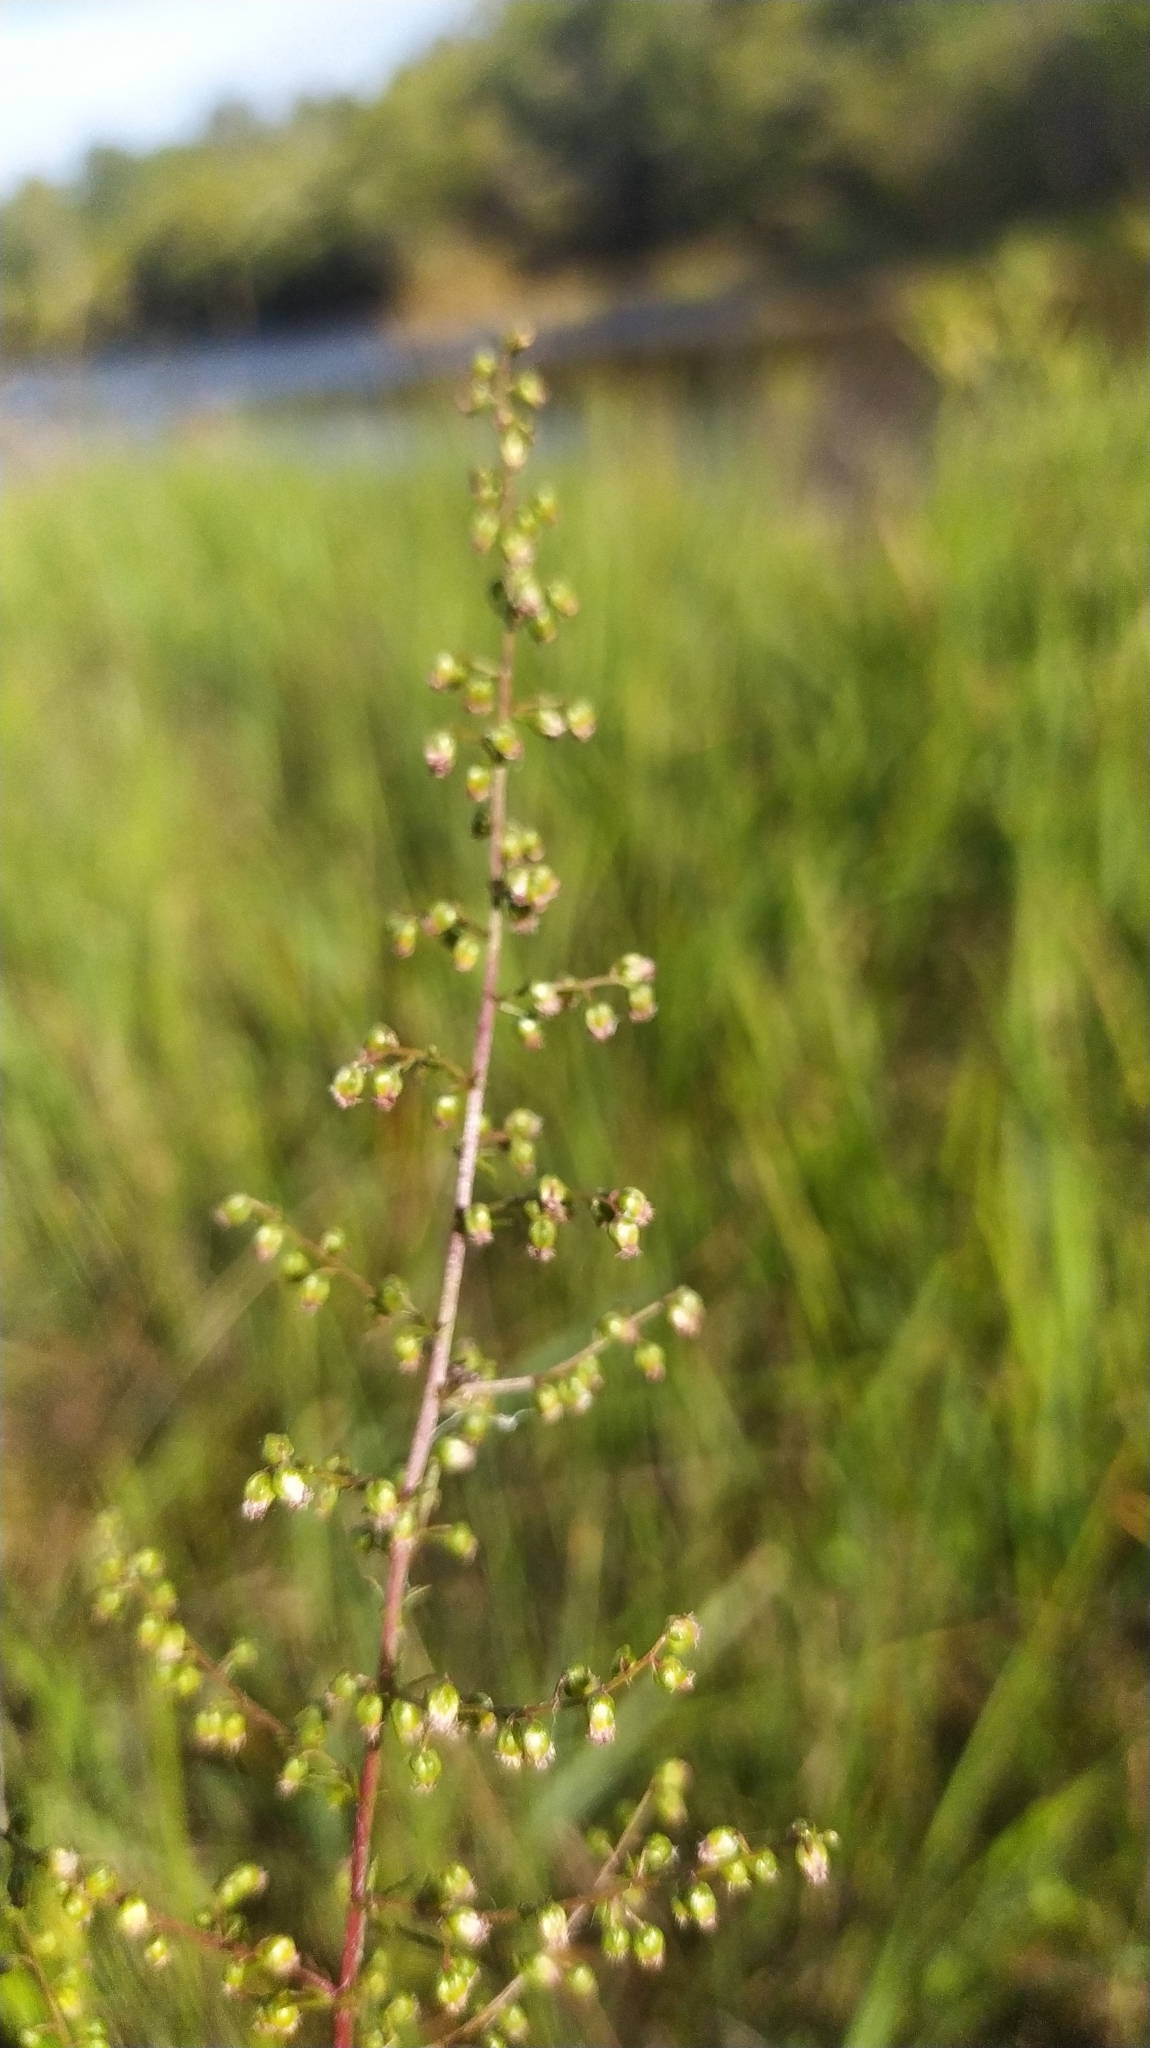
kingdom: Plantae
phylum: Tracheophyta
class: Magnoliopsida
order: Asterales
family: Asteraceae
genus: Artemisia
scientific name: Artemisia scoparia
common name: Redstem wormwood
